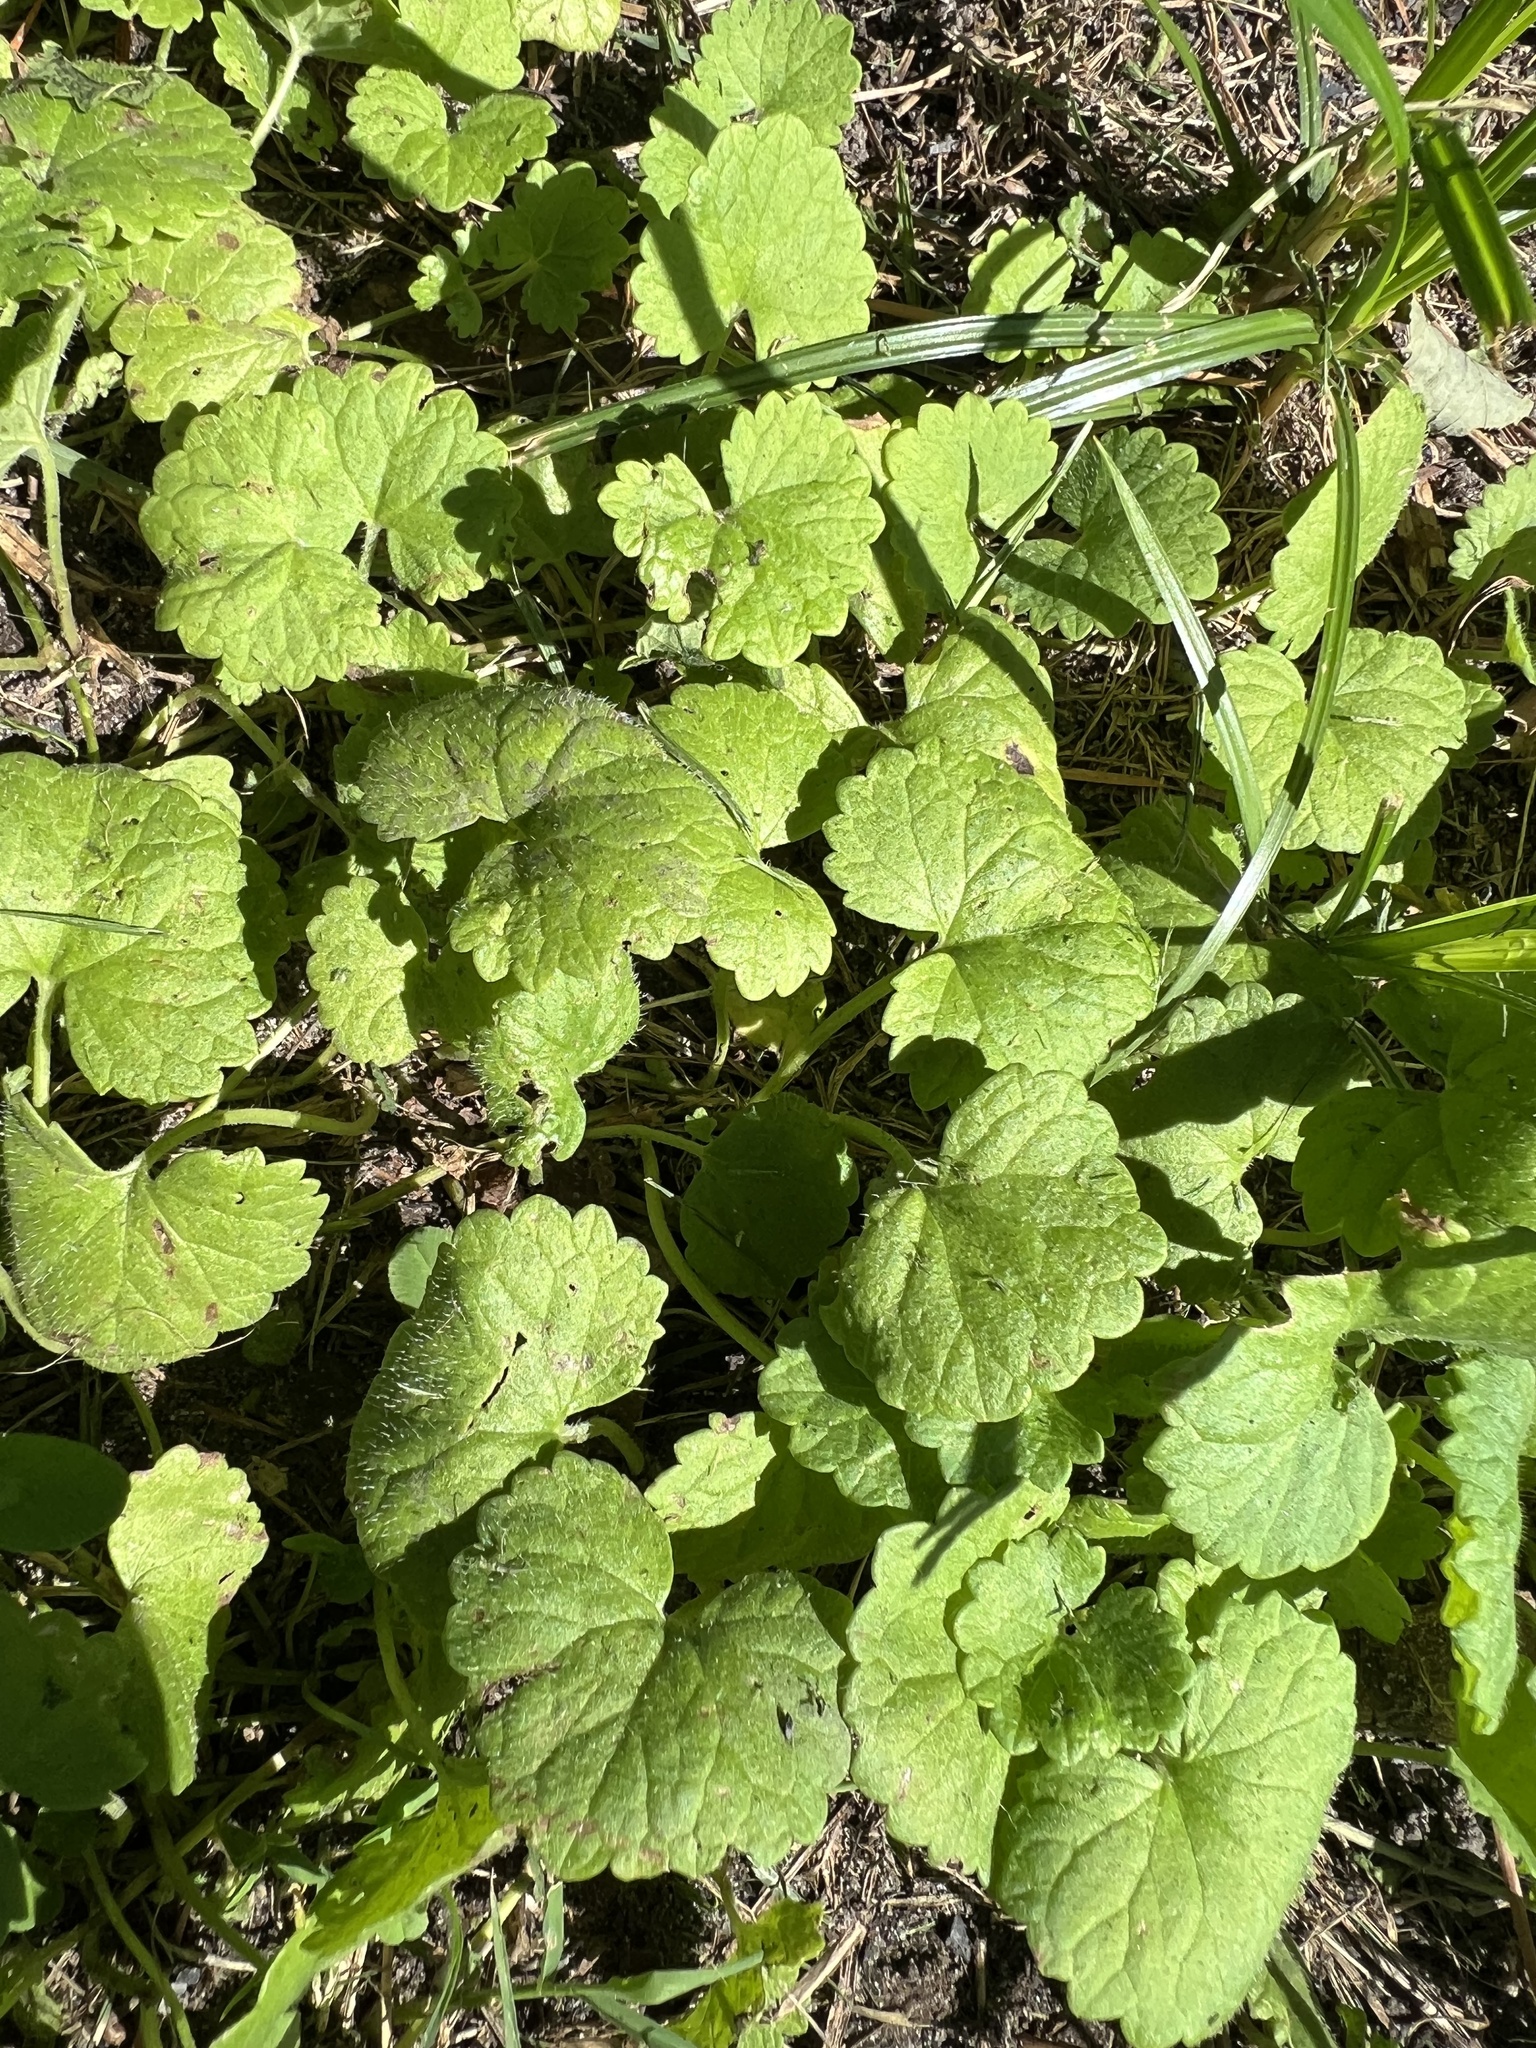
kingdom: Plantae
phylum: Tracheophyta
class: Magnoliopsida
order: Lamiales
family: Lamiaceae
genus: Glechoma
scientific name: Glechoma hederacea
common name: Ground ivy
